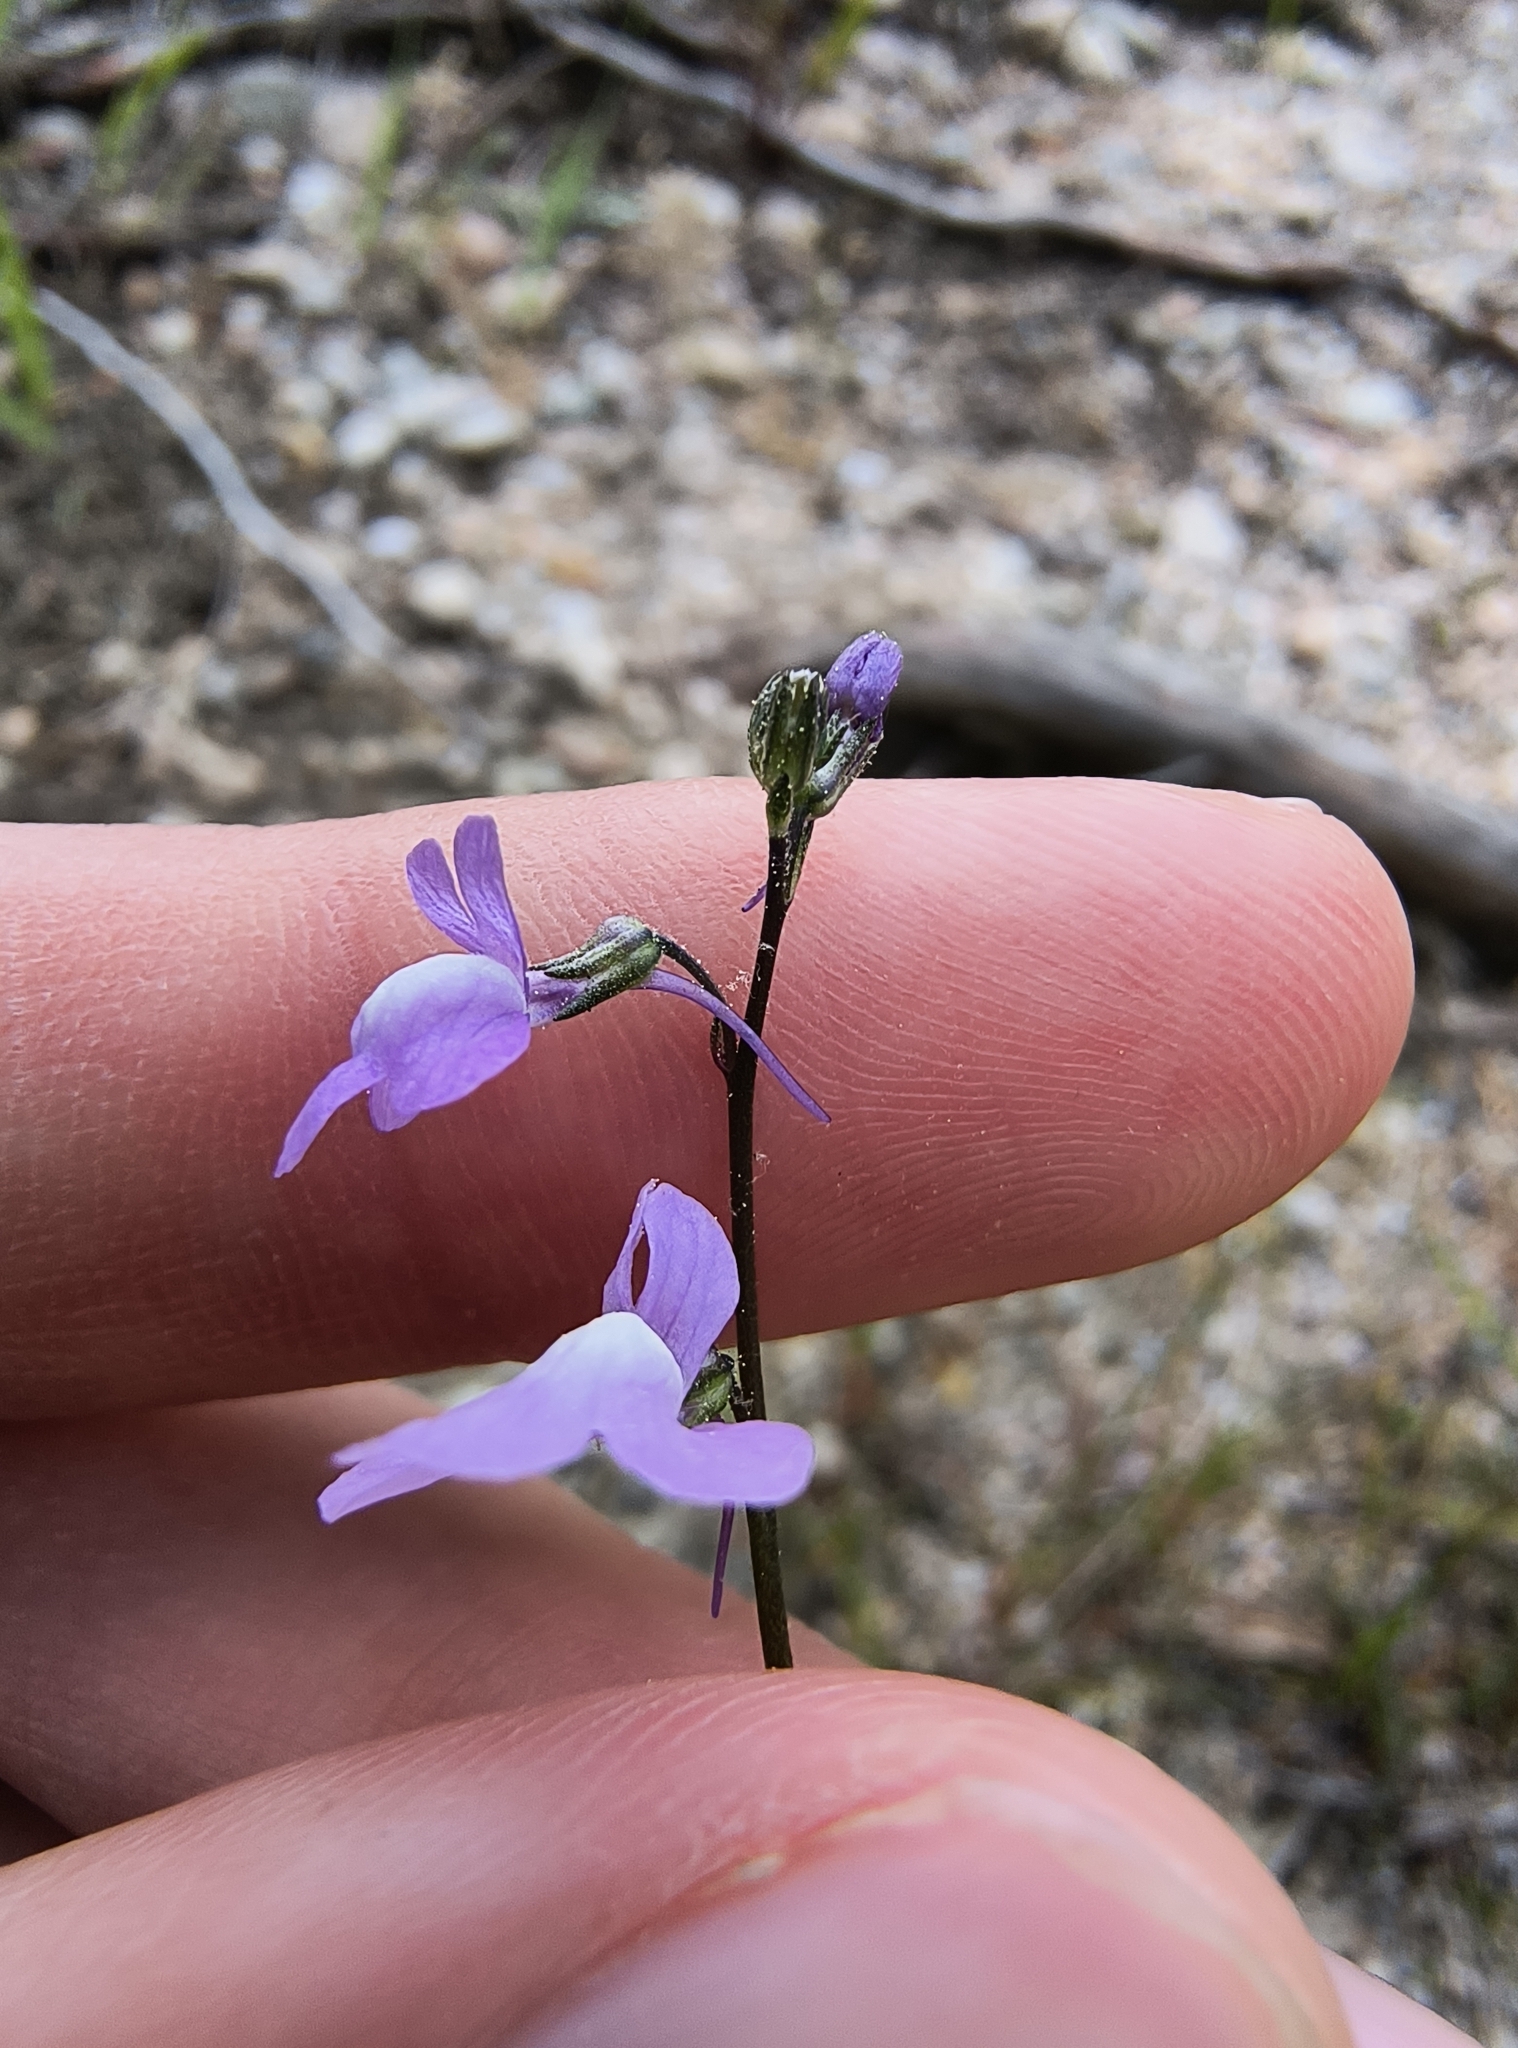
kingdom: Plantae
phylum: Tracheophyta
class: Magnoliopsida
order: Lamiales
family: Plantaginaceae
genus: Nuttallanthus
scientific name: Nuttallanthus canadensis
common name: Blue toadflax
